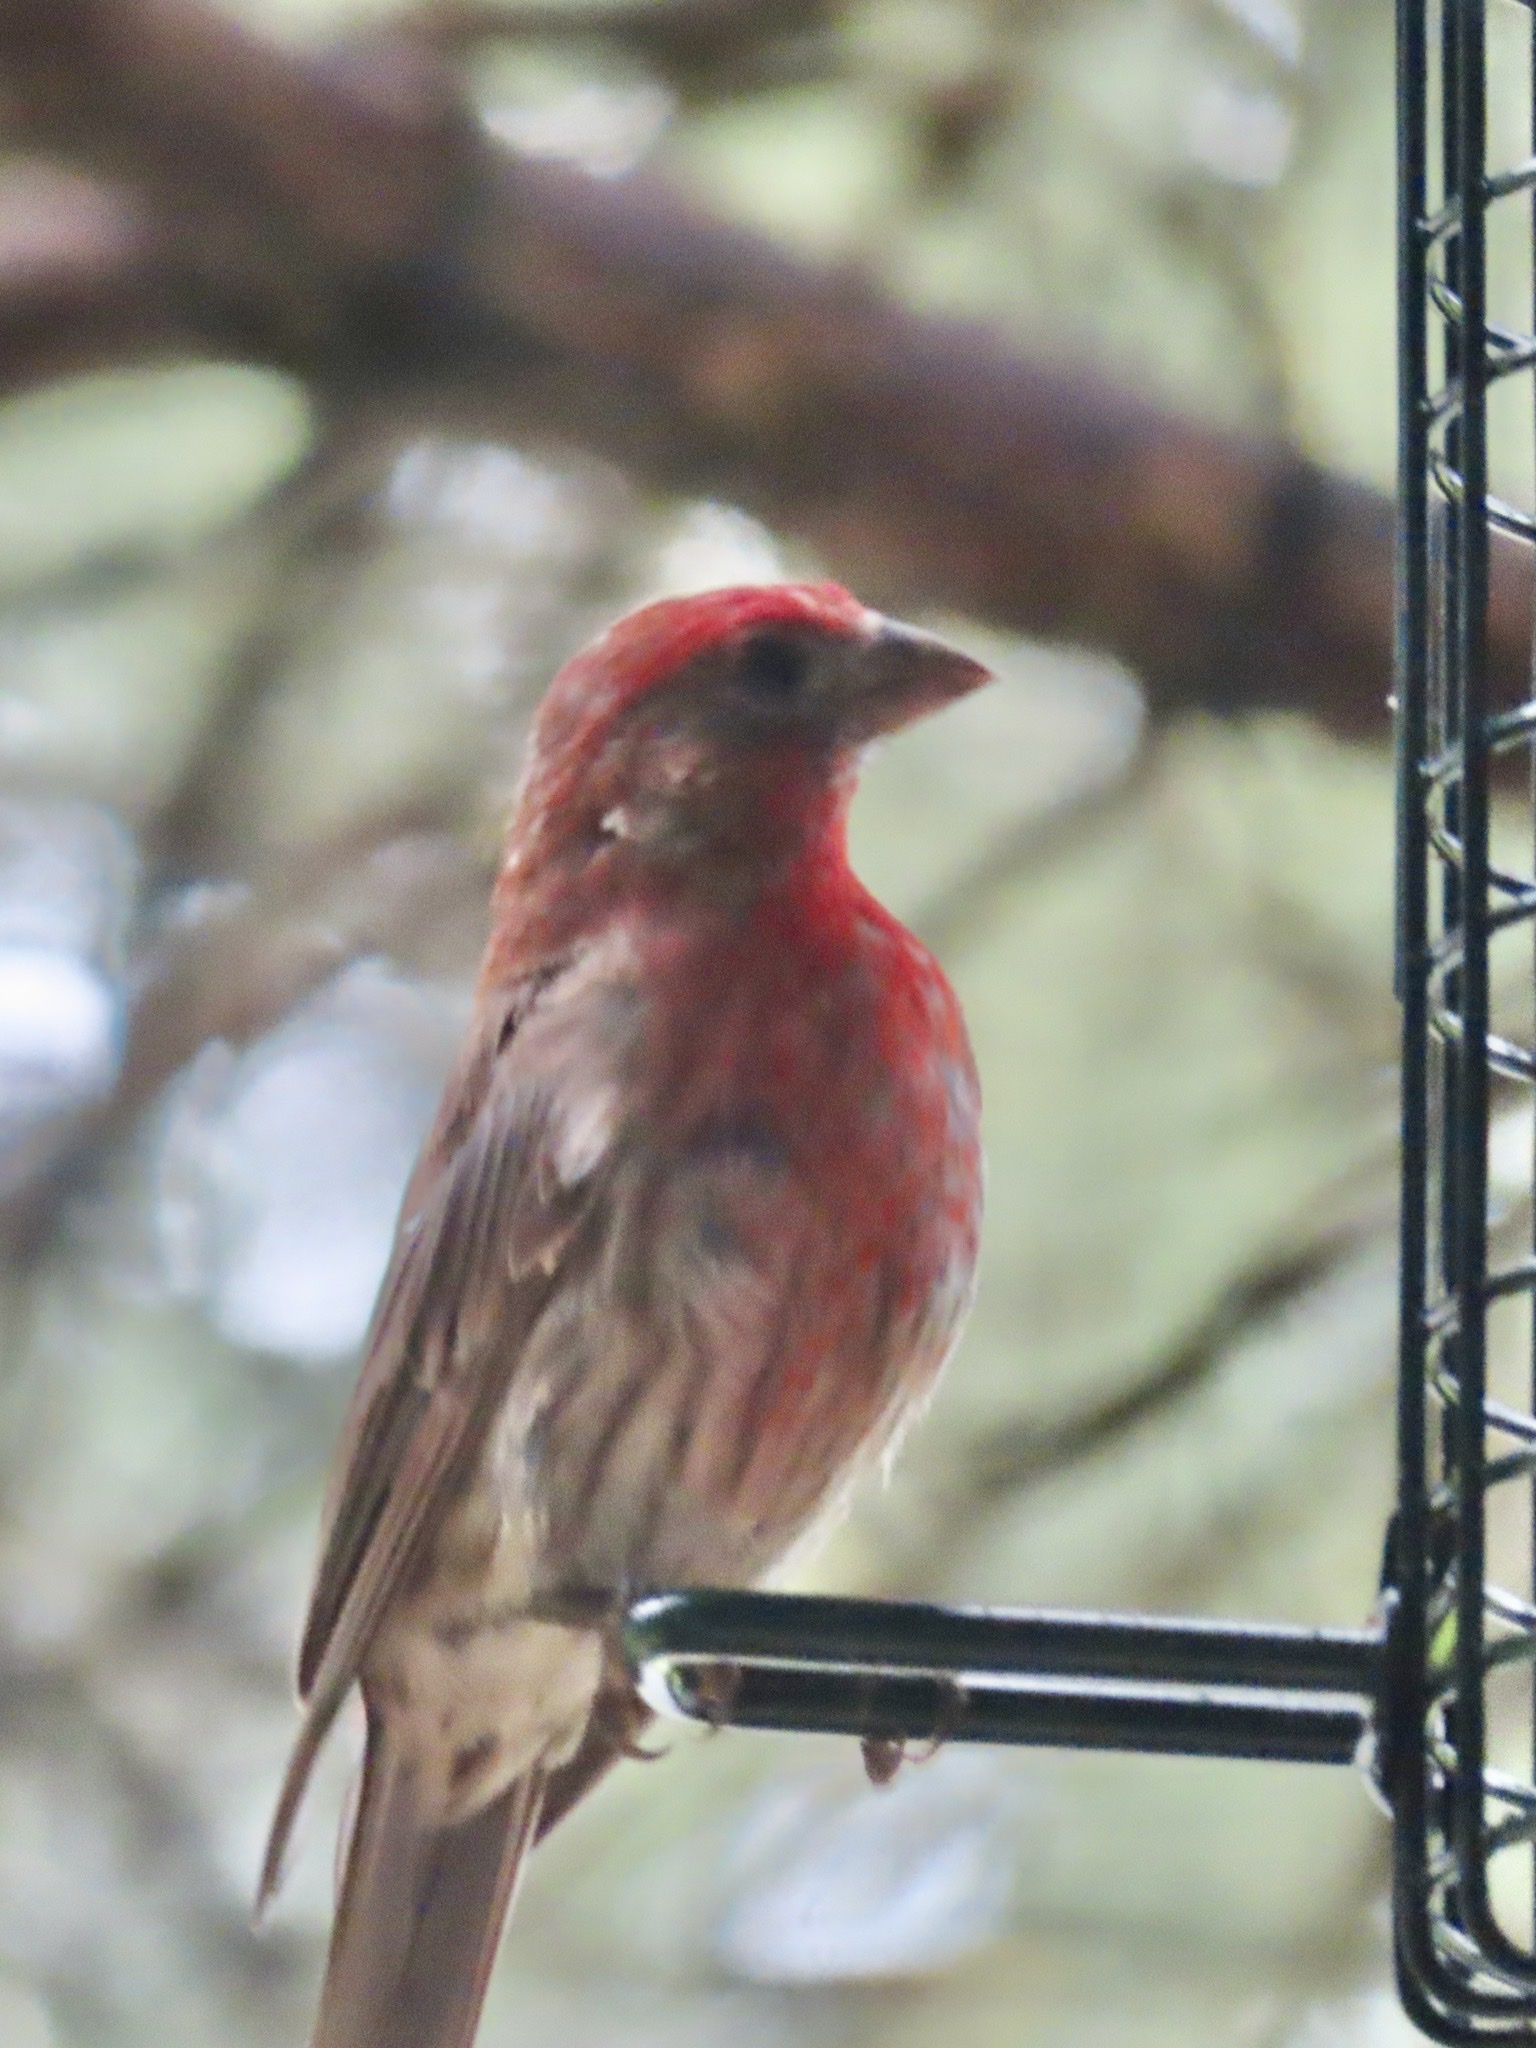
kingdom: Animalia
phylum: Chordata
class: Aves
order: Passeriformes
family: Fringillidae
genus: Haemorhous
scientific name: Haemorhous mexicanus
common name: House finch
